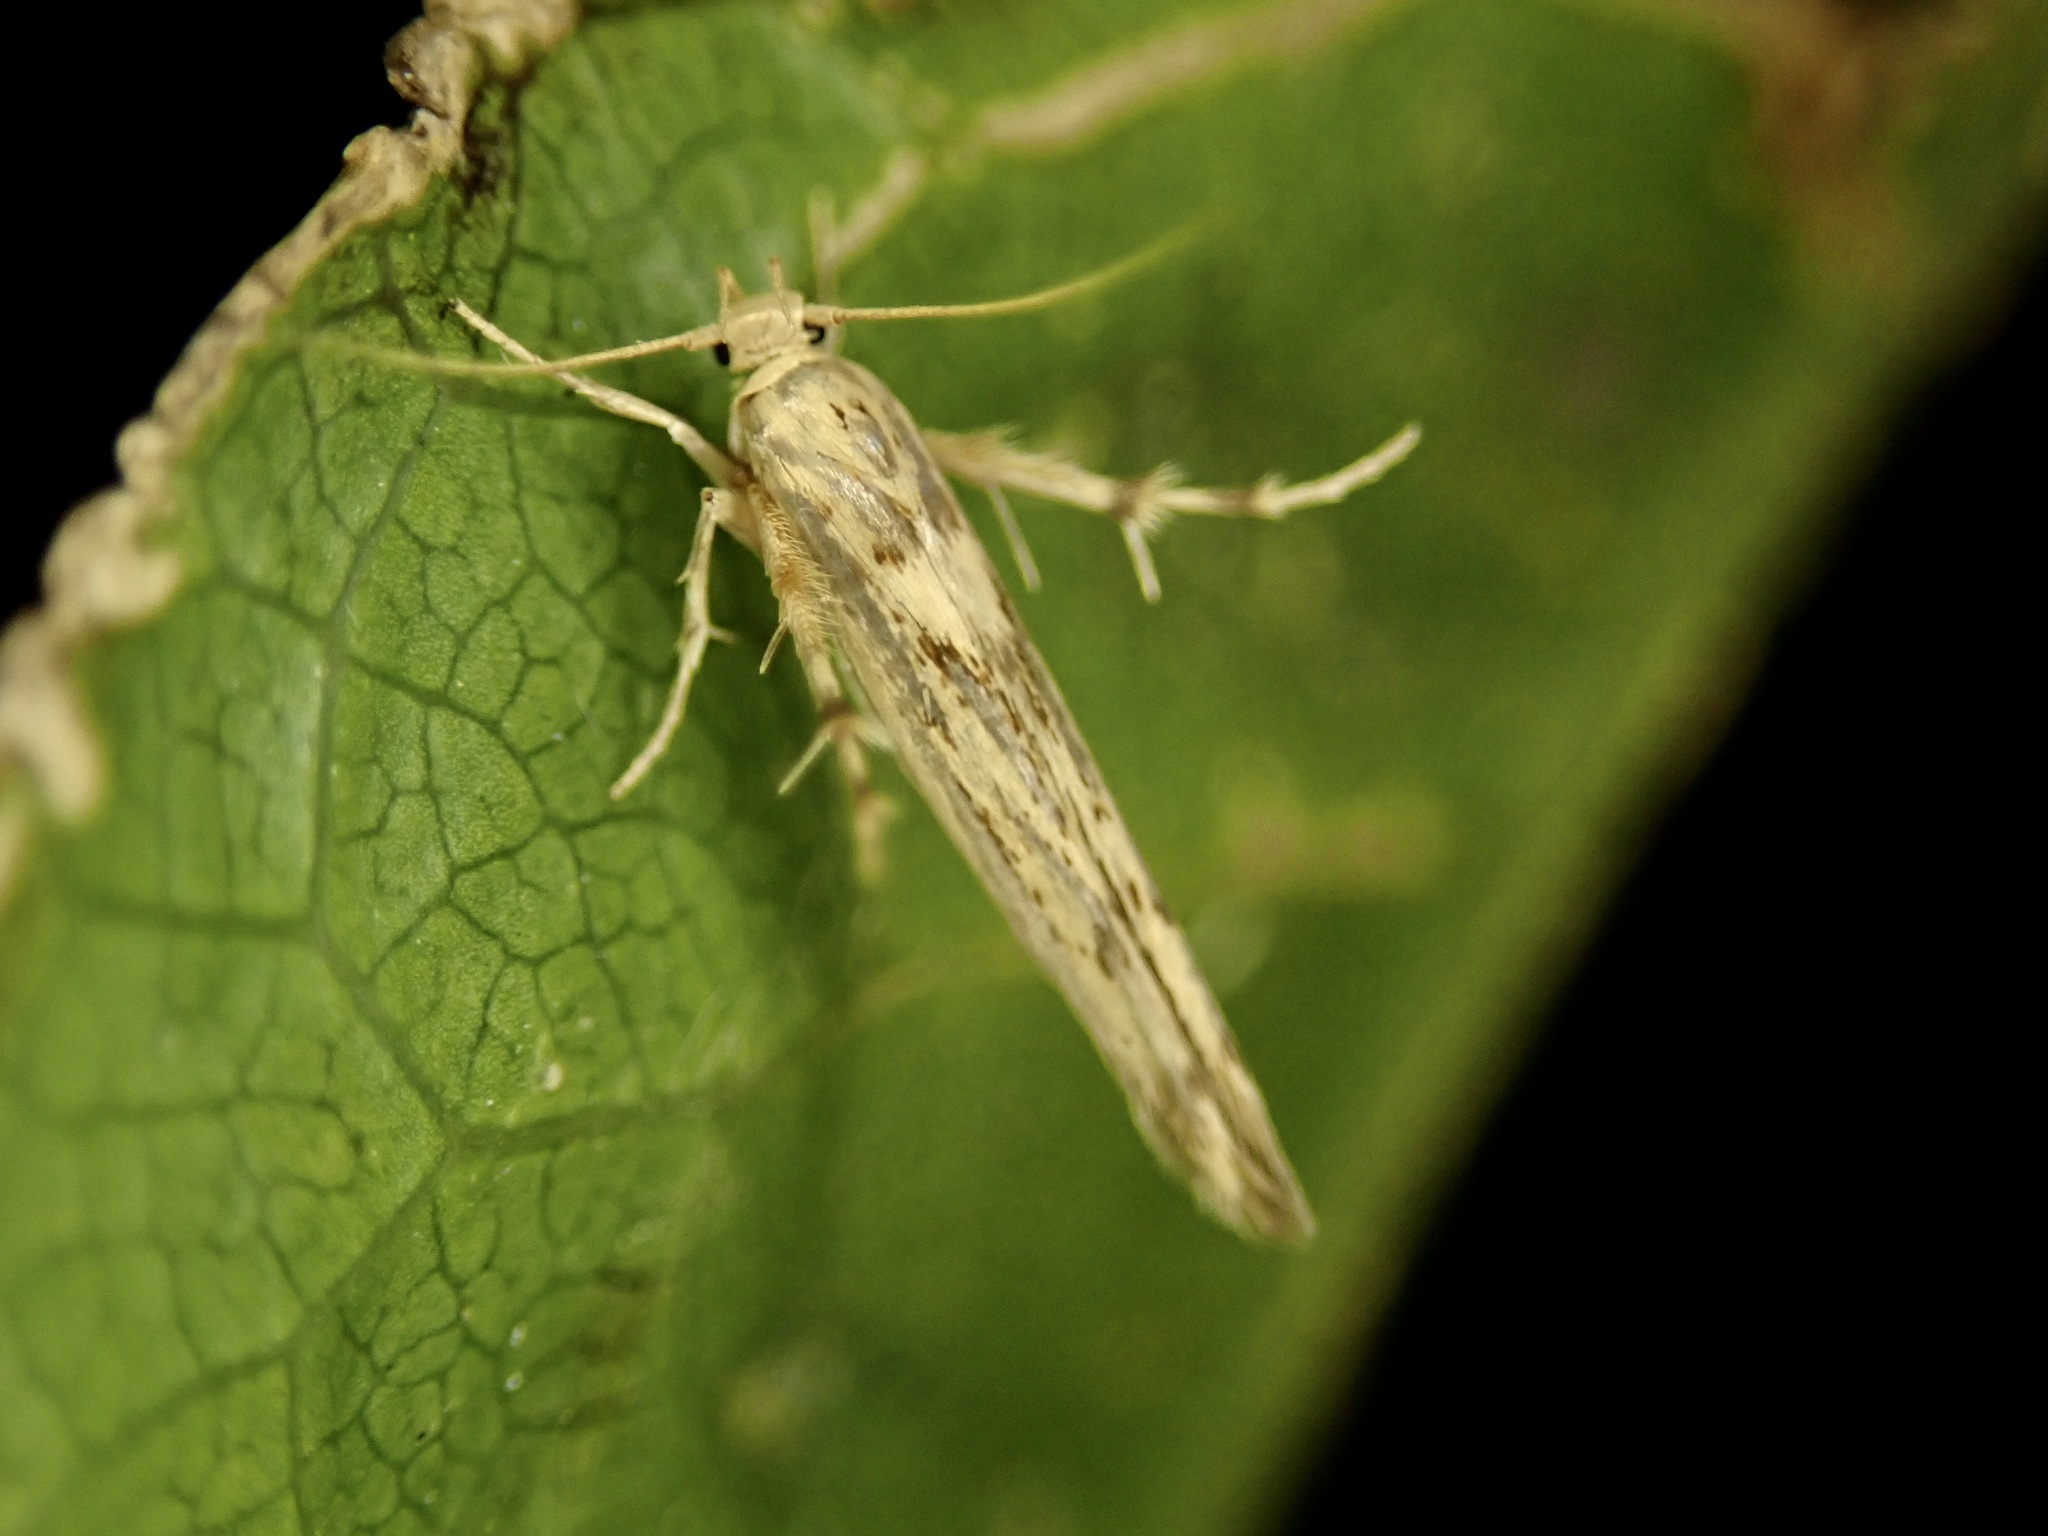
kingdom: Animalia
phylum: Arthropoda
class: Insecta
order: Lepidoptera
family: Stathmopodidae
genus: Stathmopoda
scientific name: Stathmopoda plumbiflua
